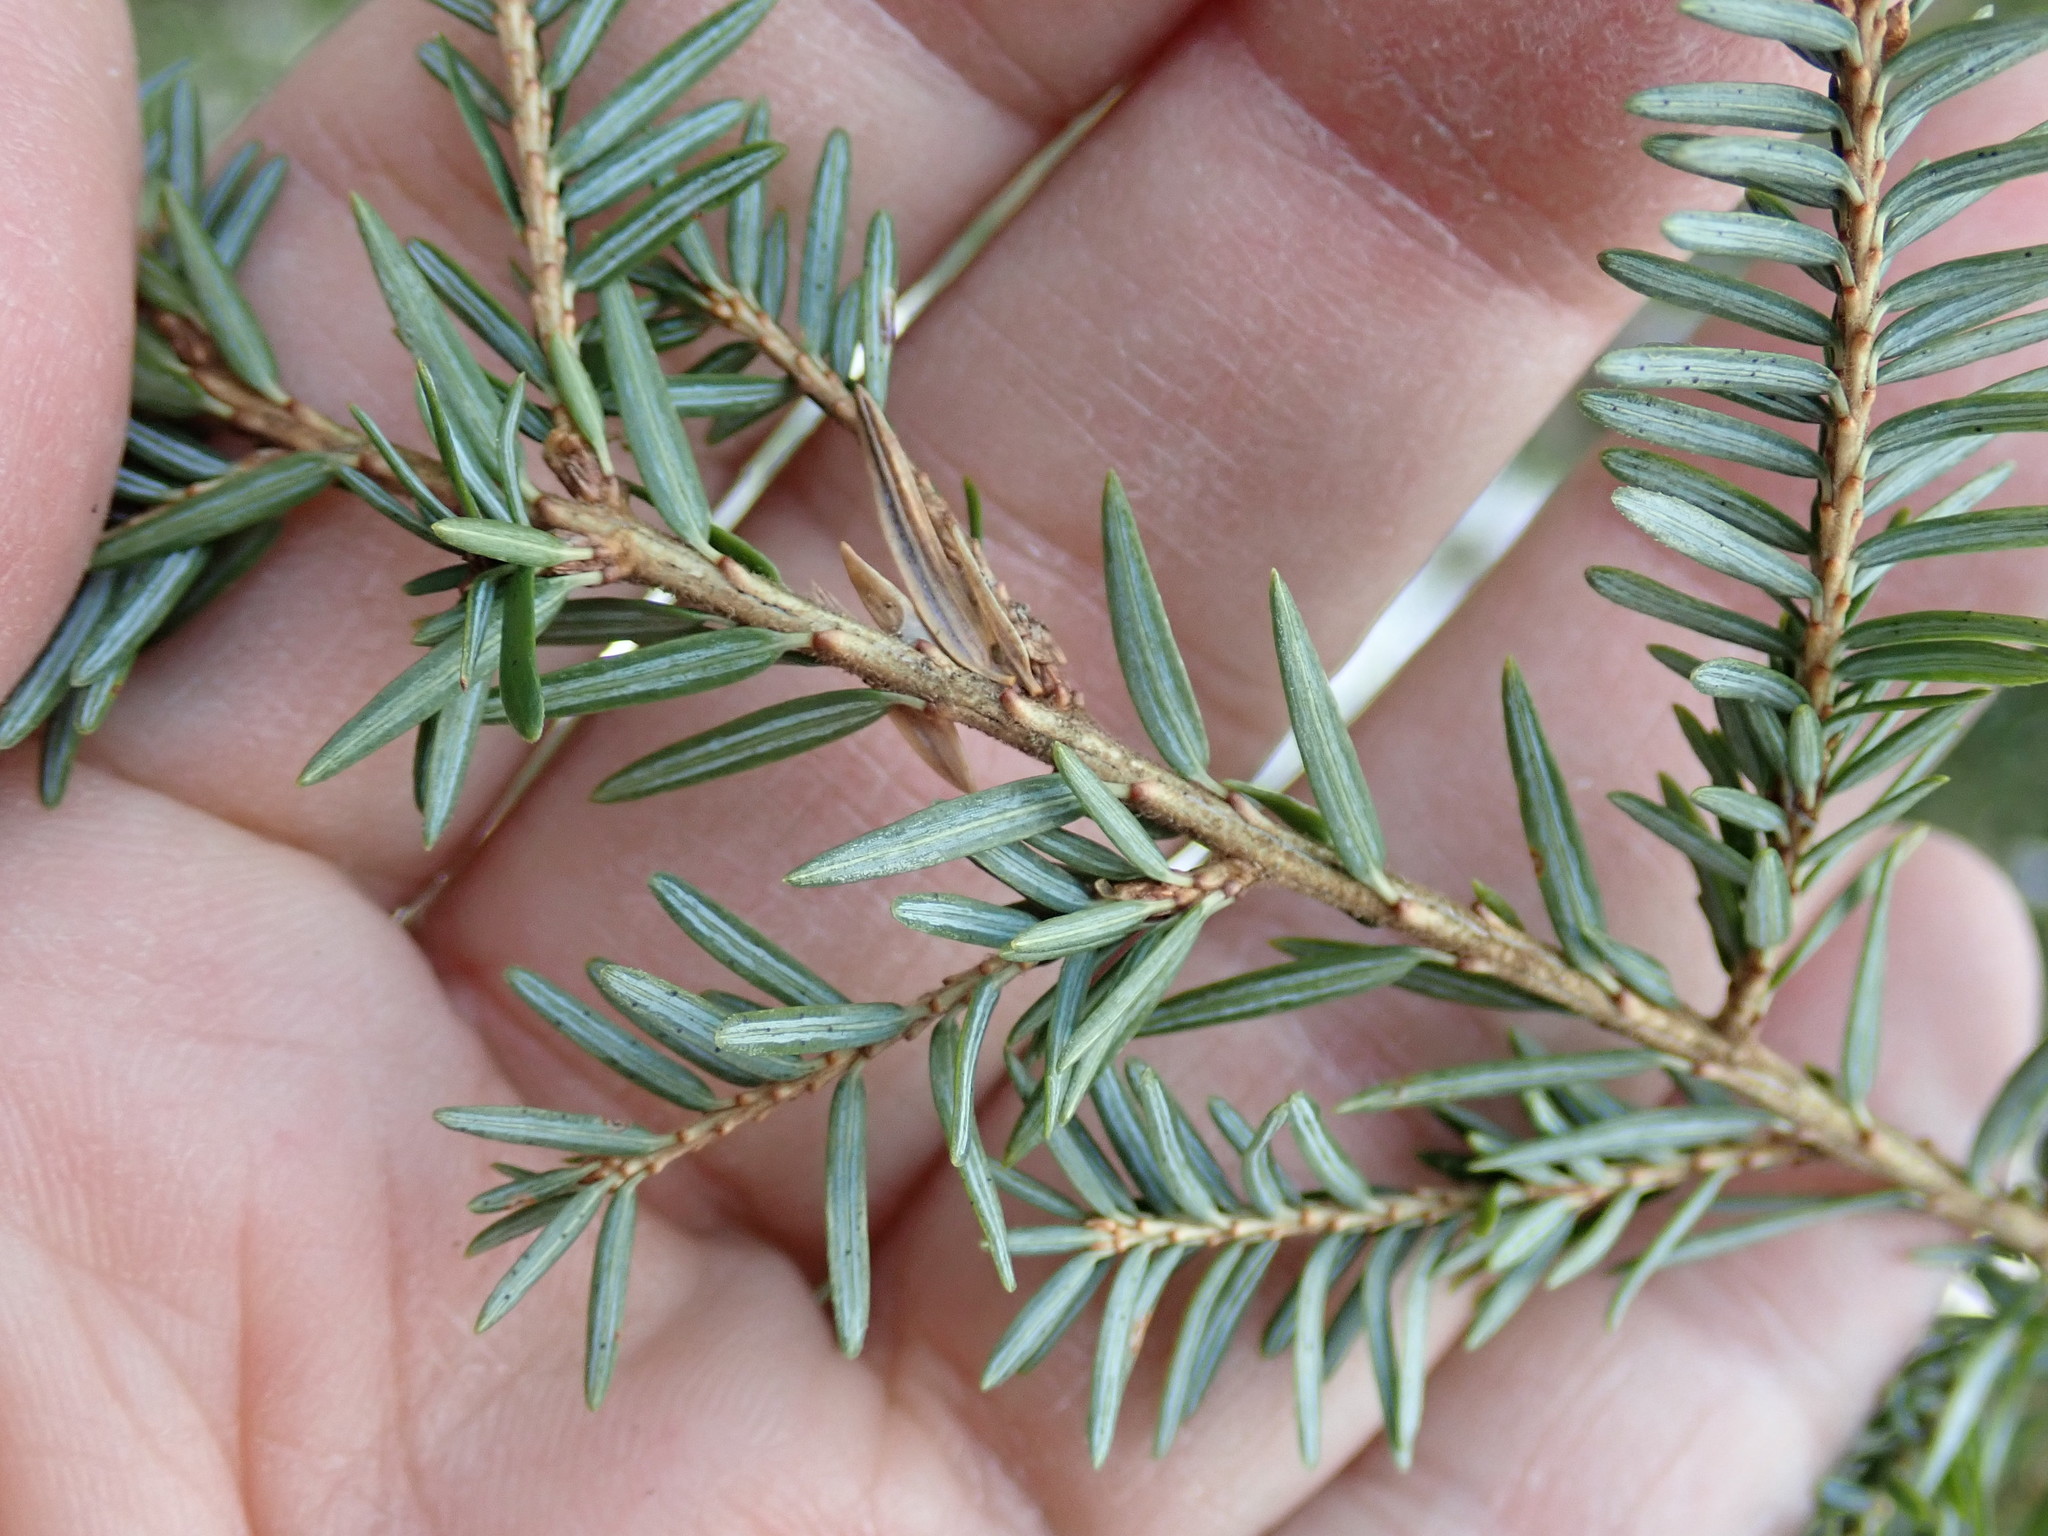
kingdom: Plantae
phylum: Tracheophyta
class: Pinopsida
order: Pinales
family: Pinaceae
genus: Tsuga
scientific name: Tsuga canadensis
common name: Eastern hemlock
